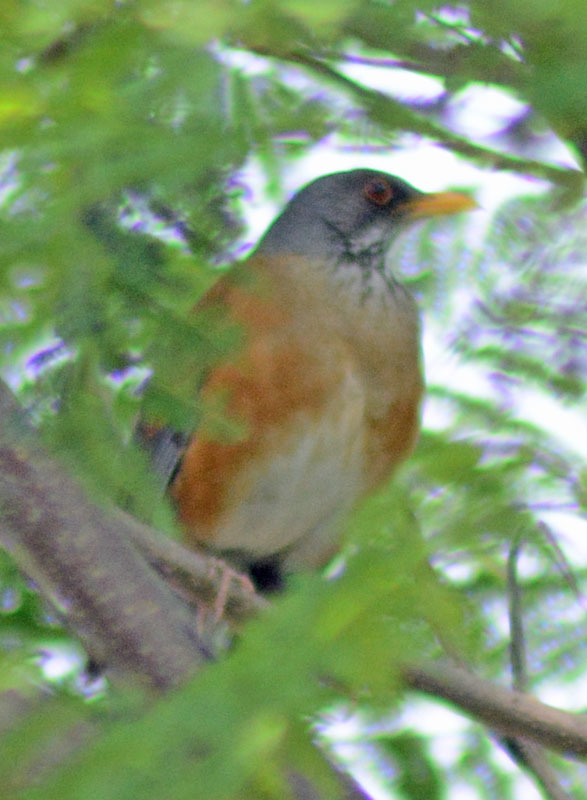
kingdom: Animalia
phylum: Chordata
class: Aves
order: Passeriformes
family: Turdidae
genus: Turdus
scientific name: Turdus rufopalliatus
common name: Rufous-backed robin
